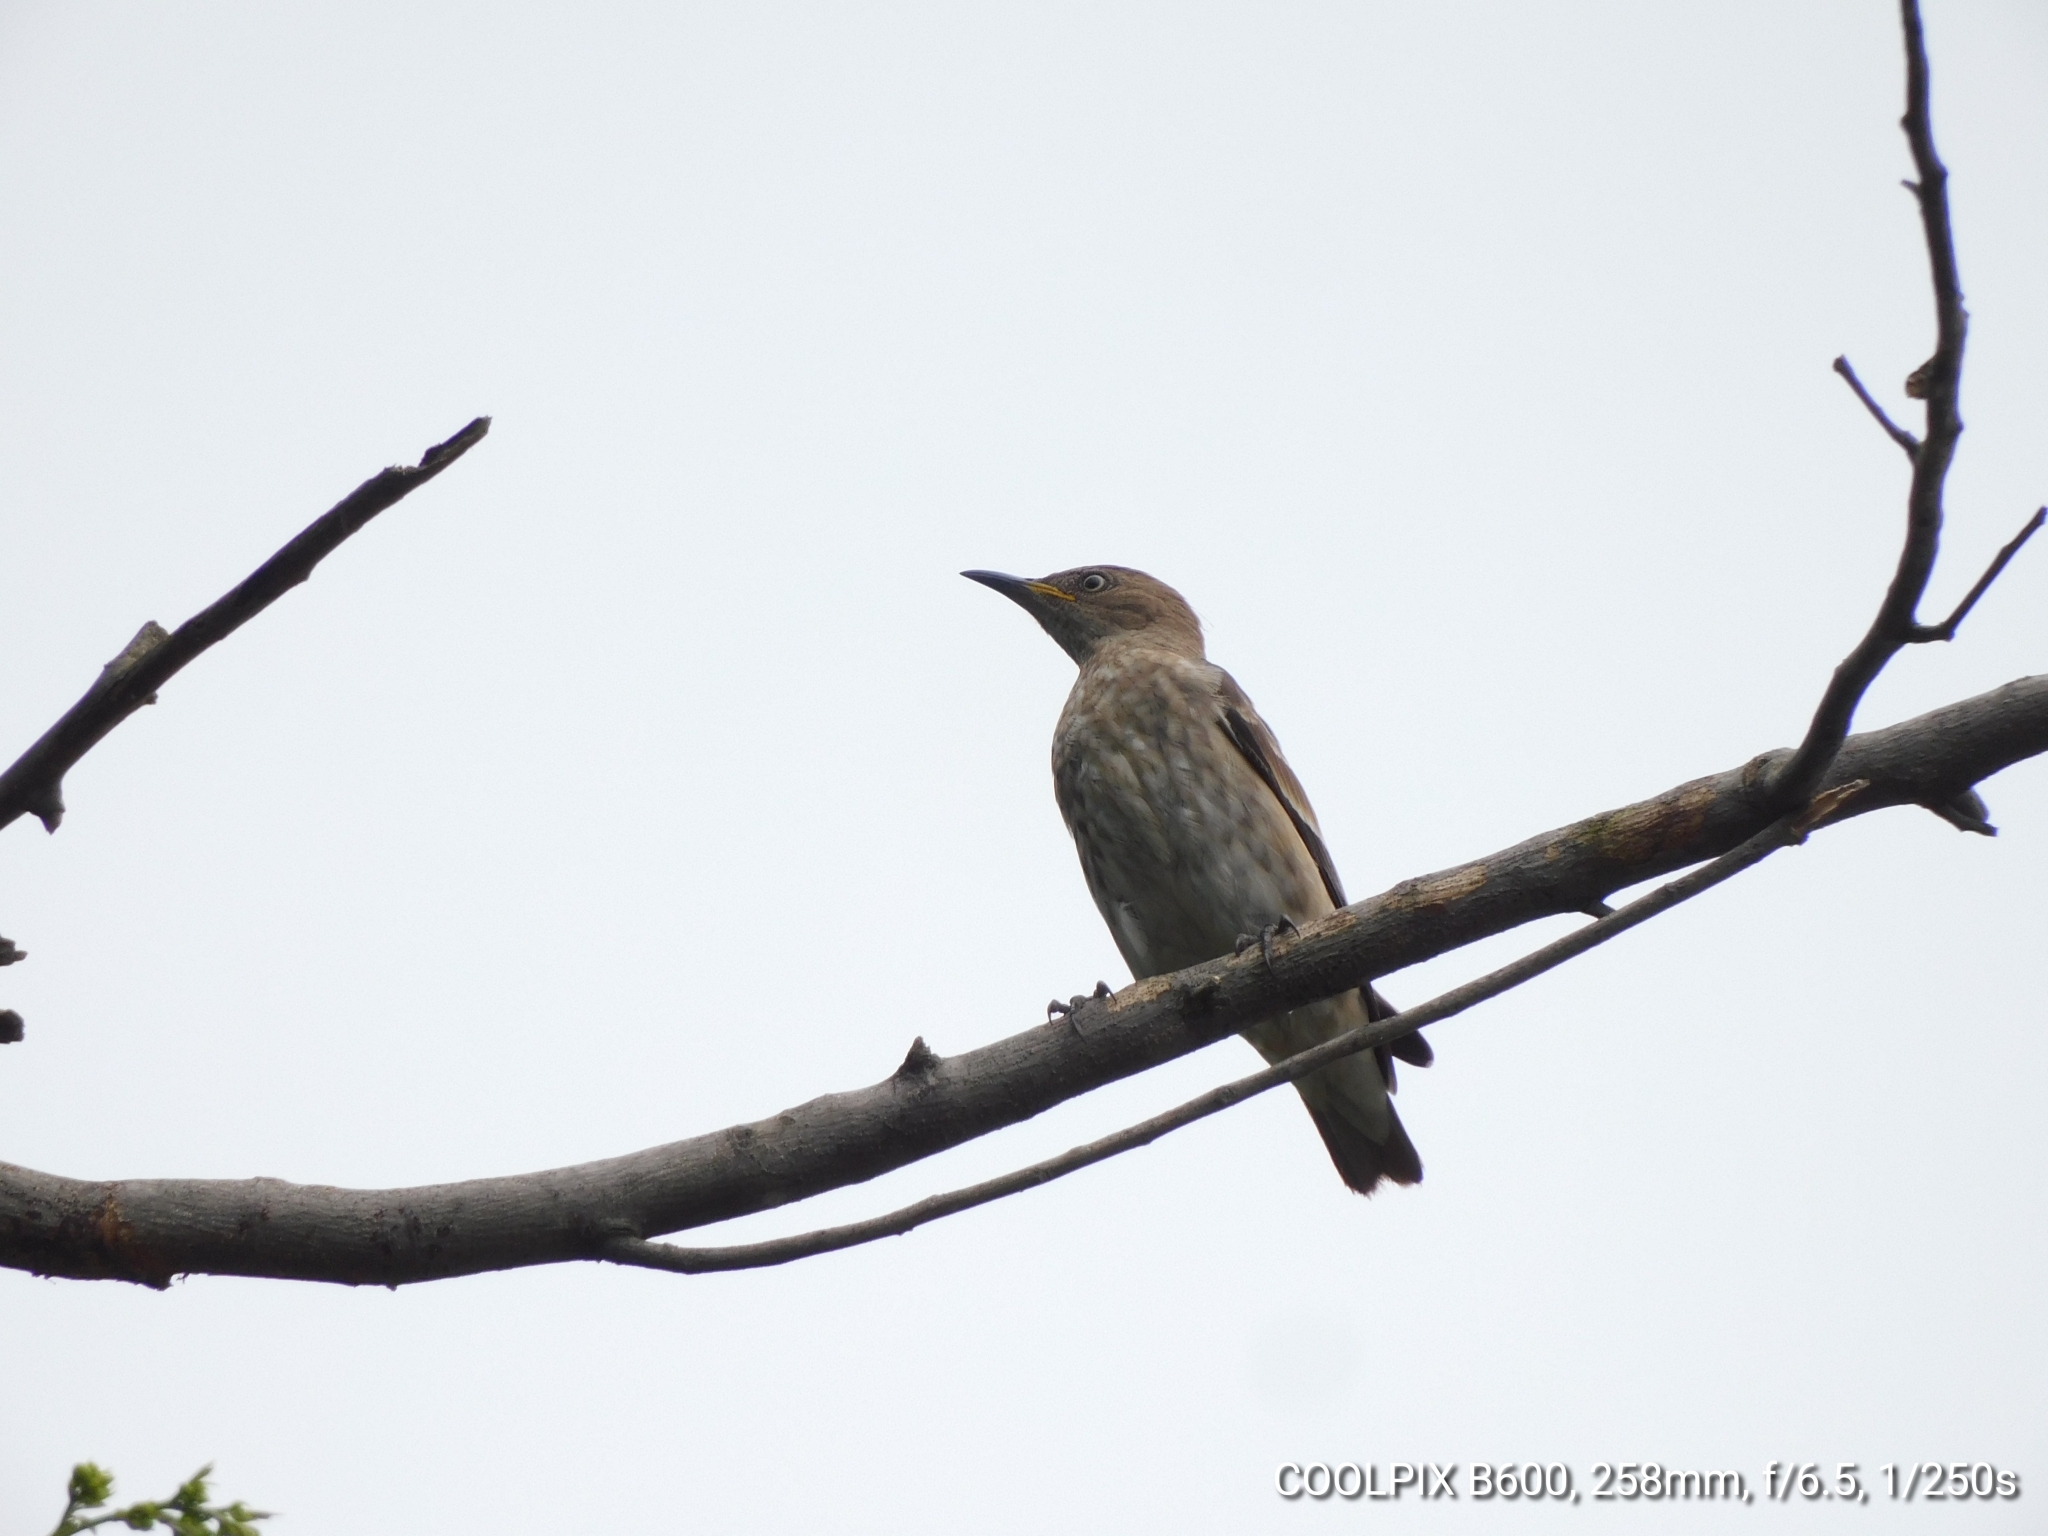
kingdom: Animalia
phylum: Chordata
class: Aves
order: Passeriformes
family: Sturnidae
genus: Saroglossa
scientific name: Saroglossa spiloptera
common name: Spot-winged starling
